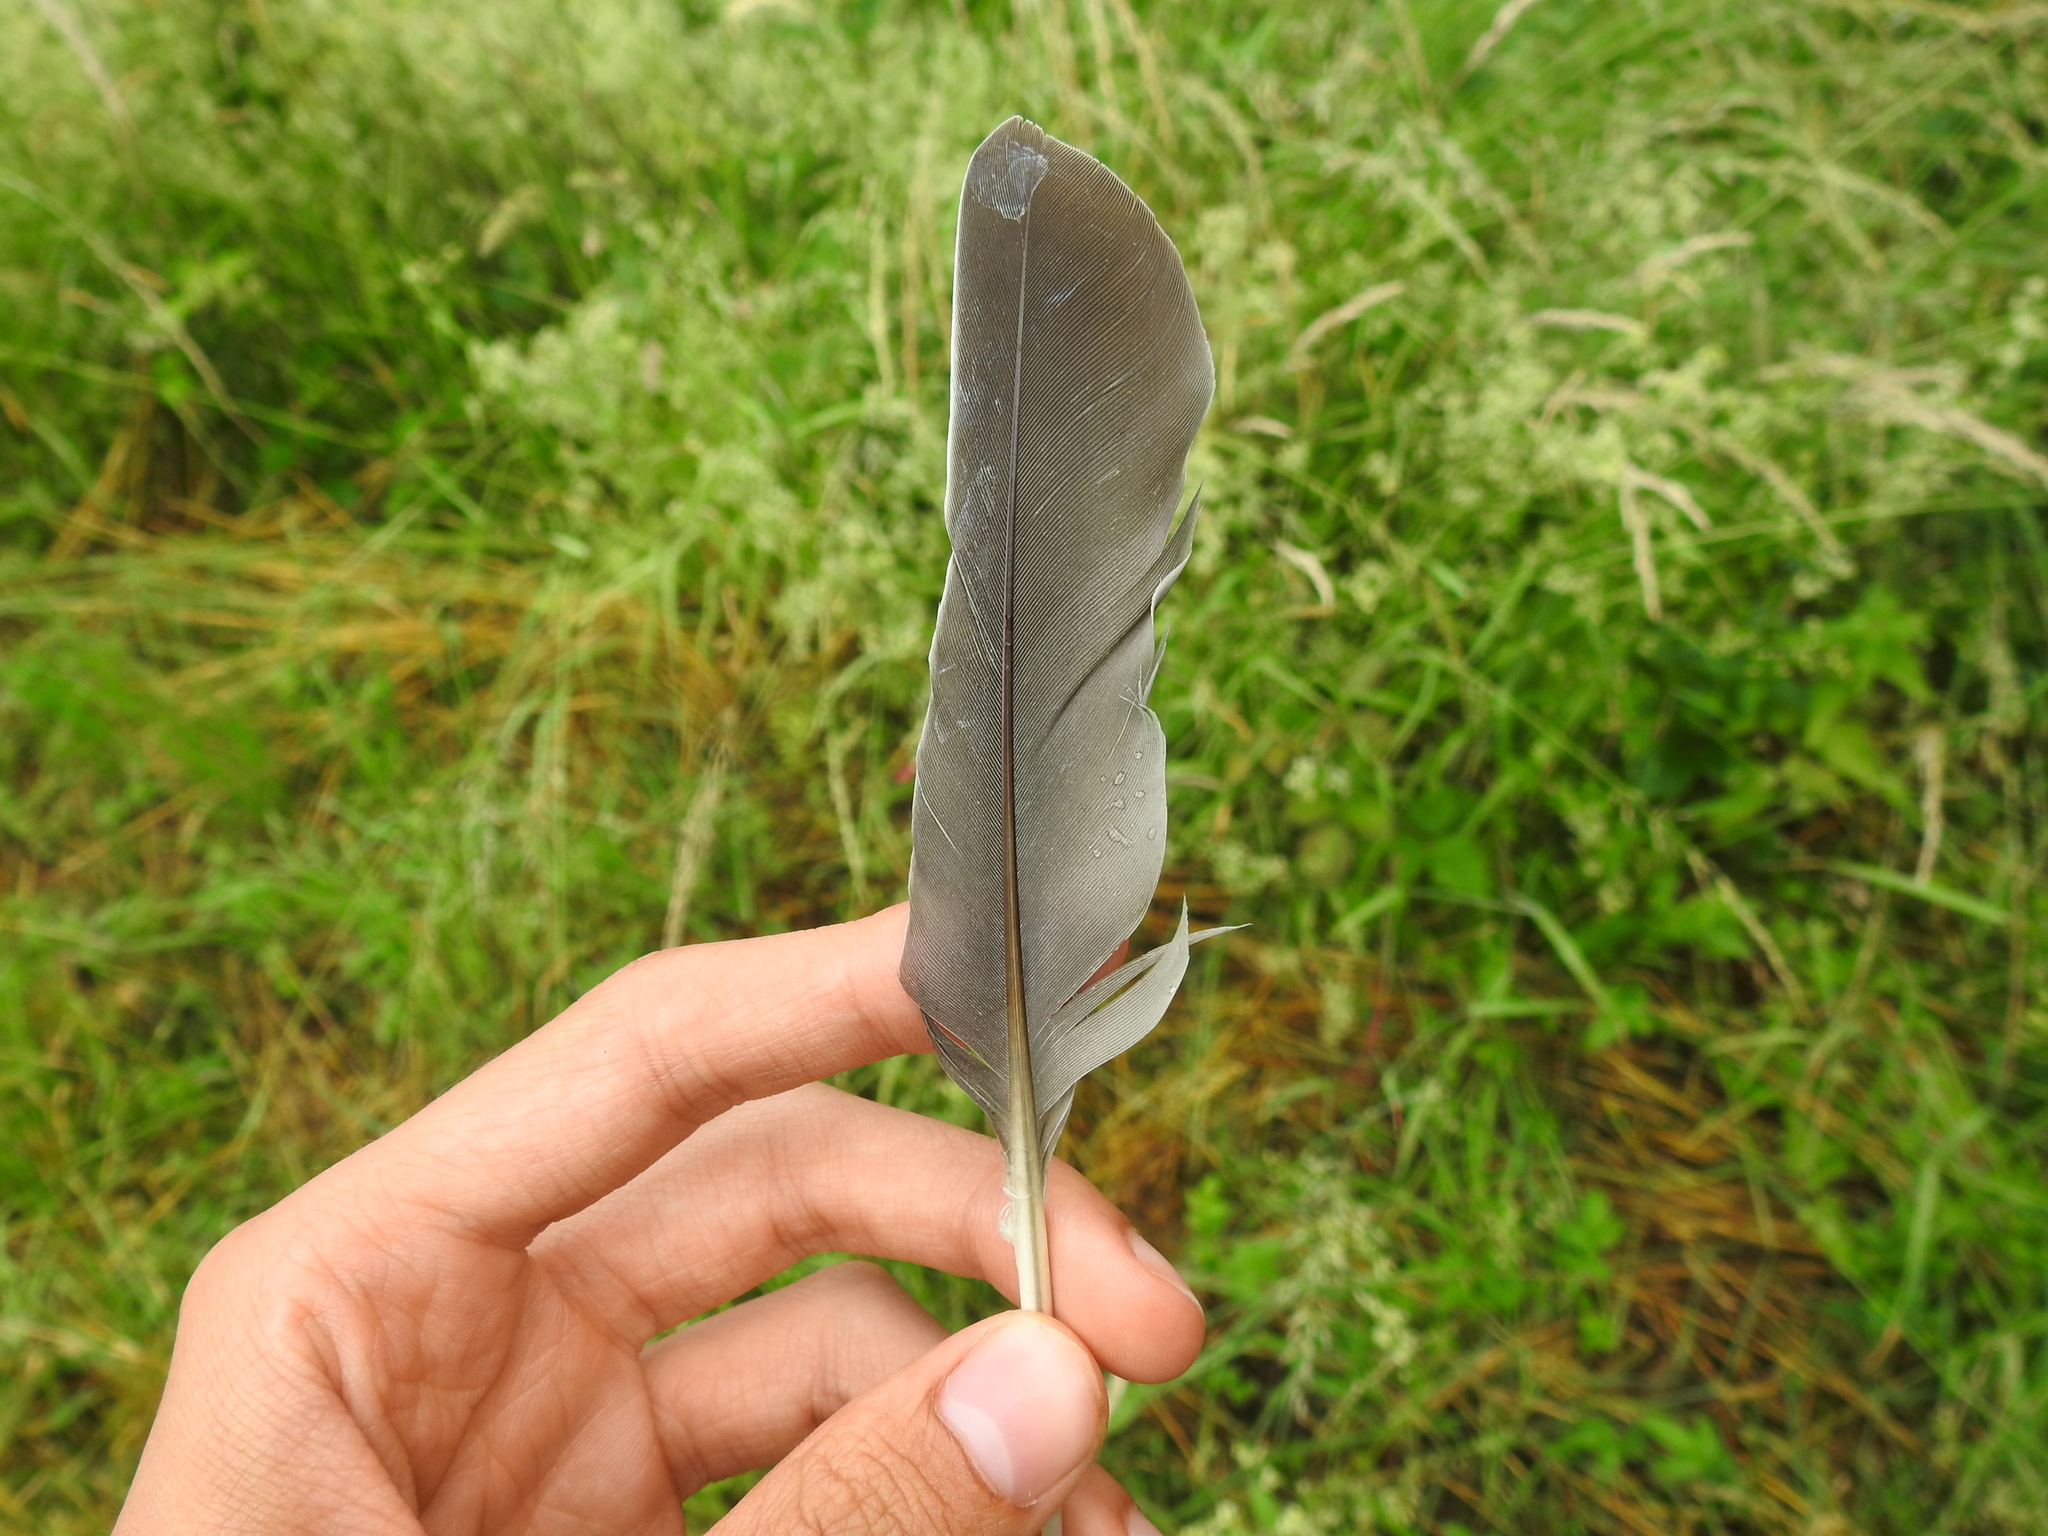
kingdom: Animalia
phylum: Chordata
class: Aves
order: Columbiformes
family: Columbidae
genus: Columba
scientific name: Columba palumbus
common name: Common wood pigeon
